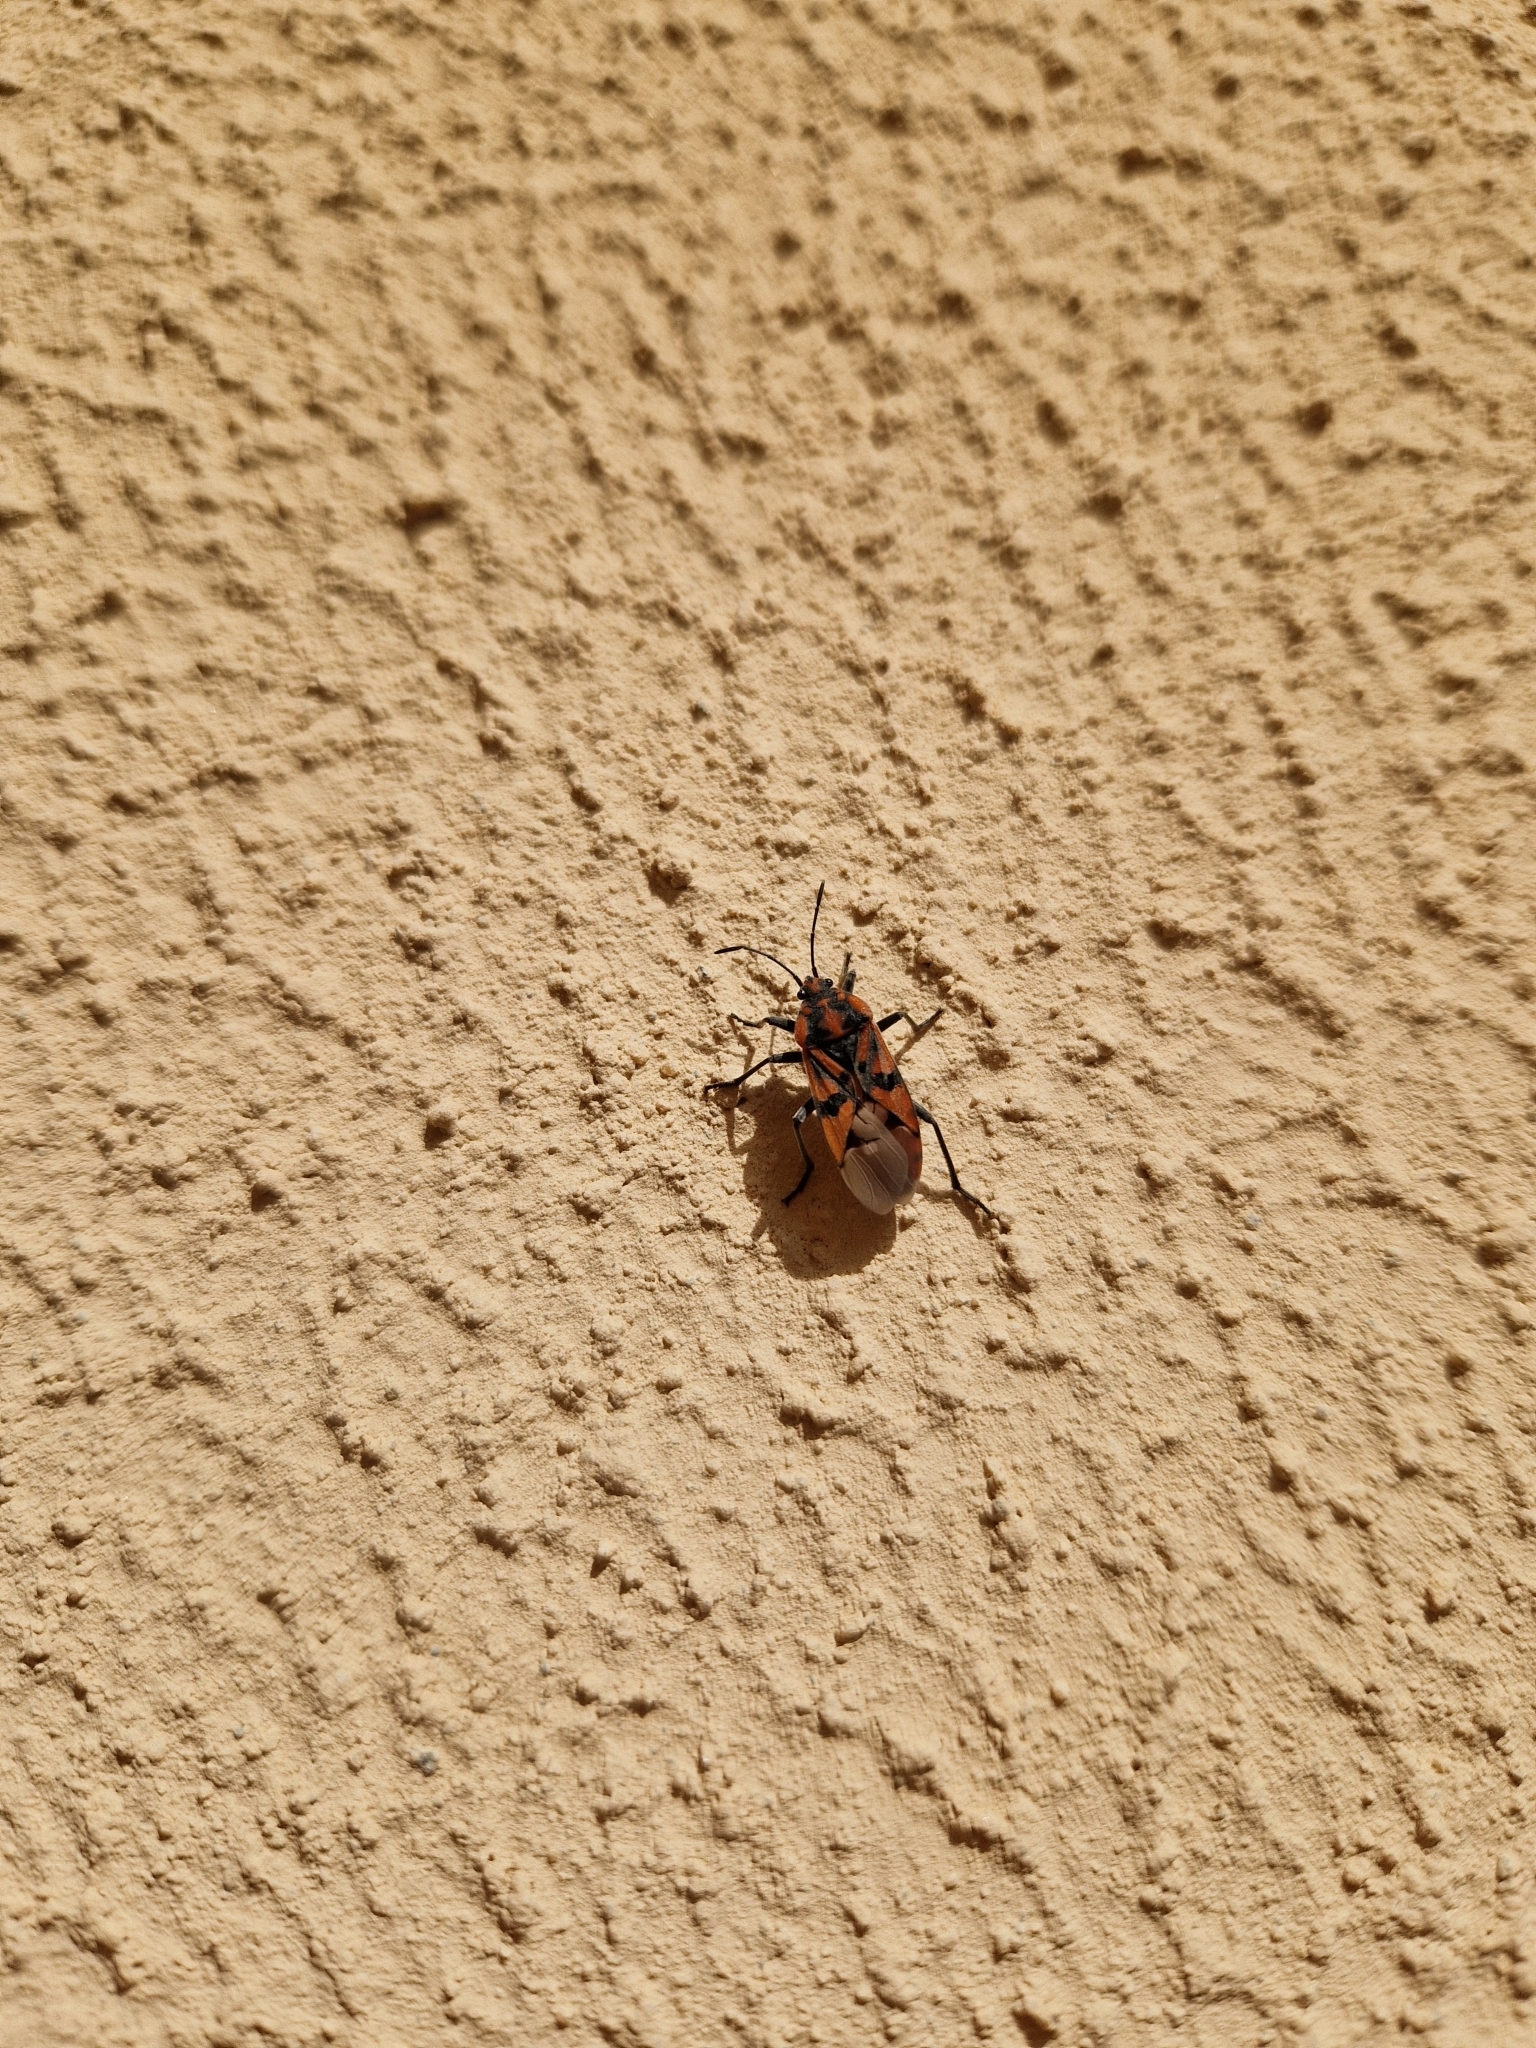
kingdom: Animalia
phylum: Arthropoda
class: Insecta
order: Hemiptera
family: Lygaeidae
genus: Spilostethus
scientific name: Spilostethus pandurus
